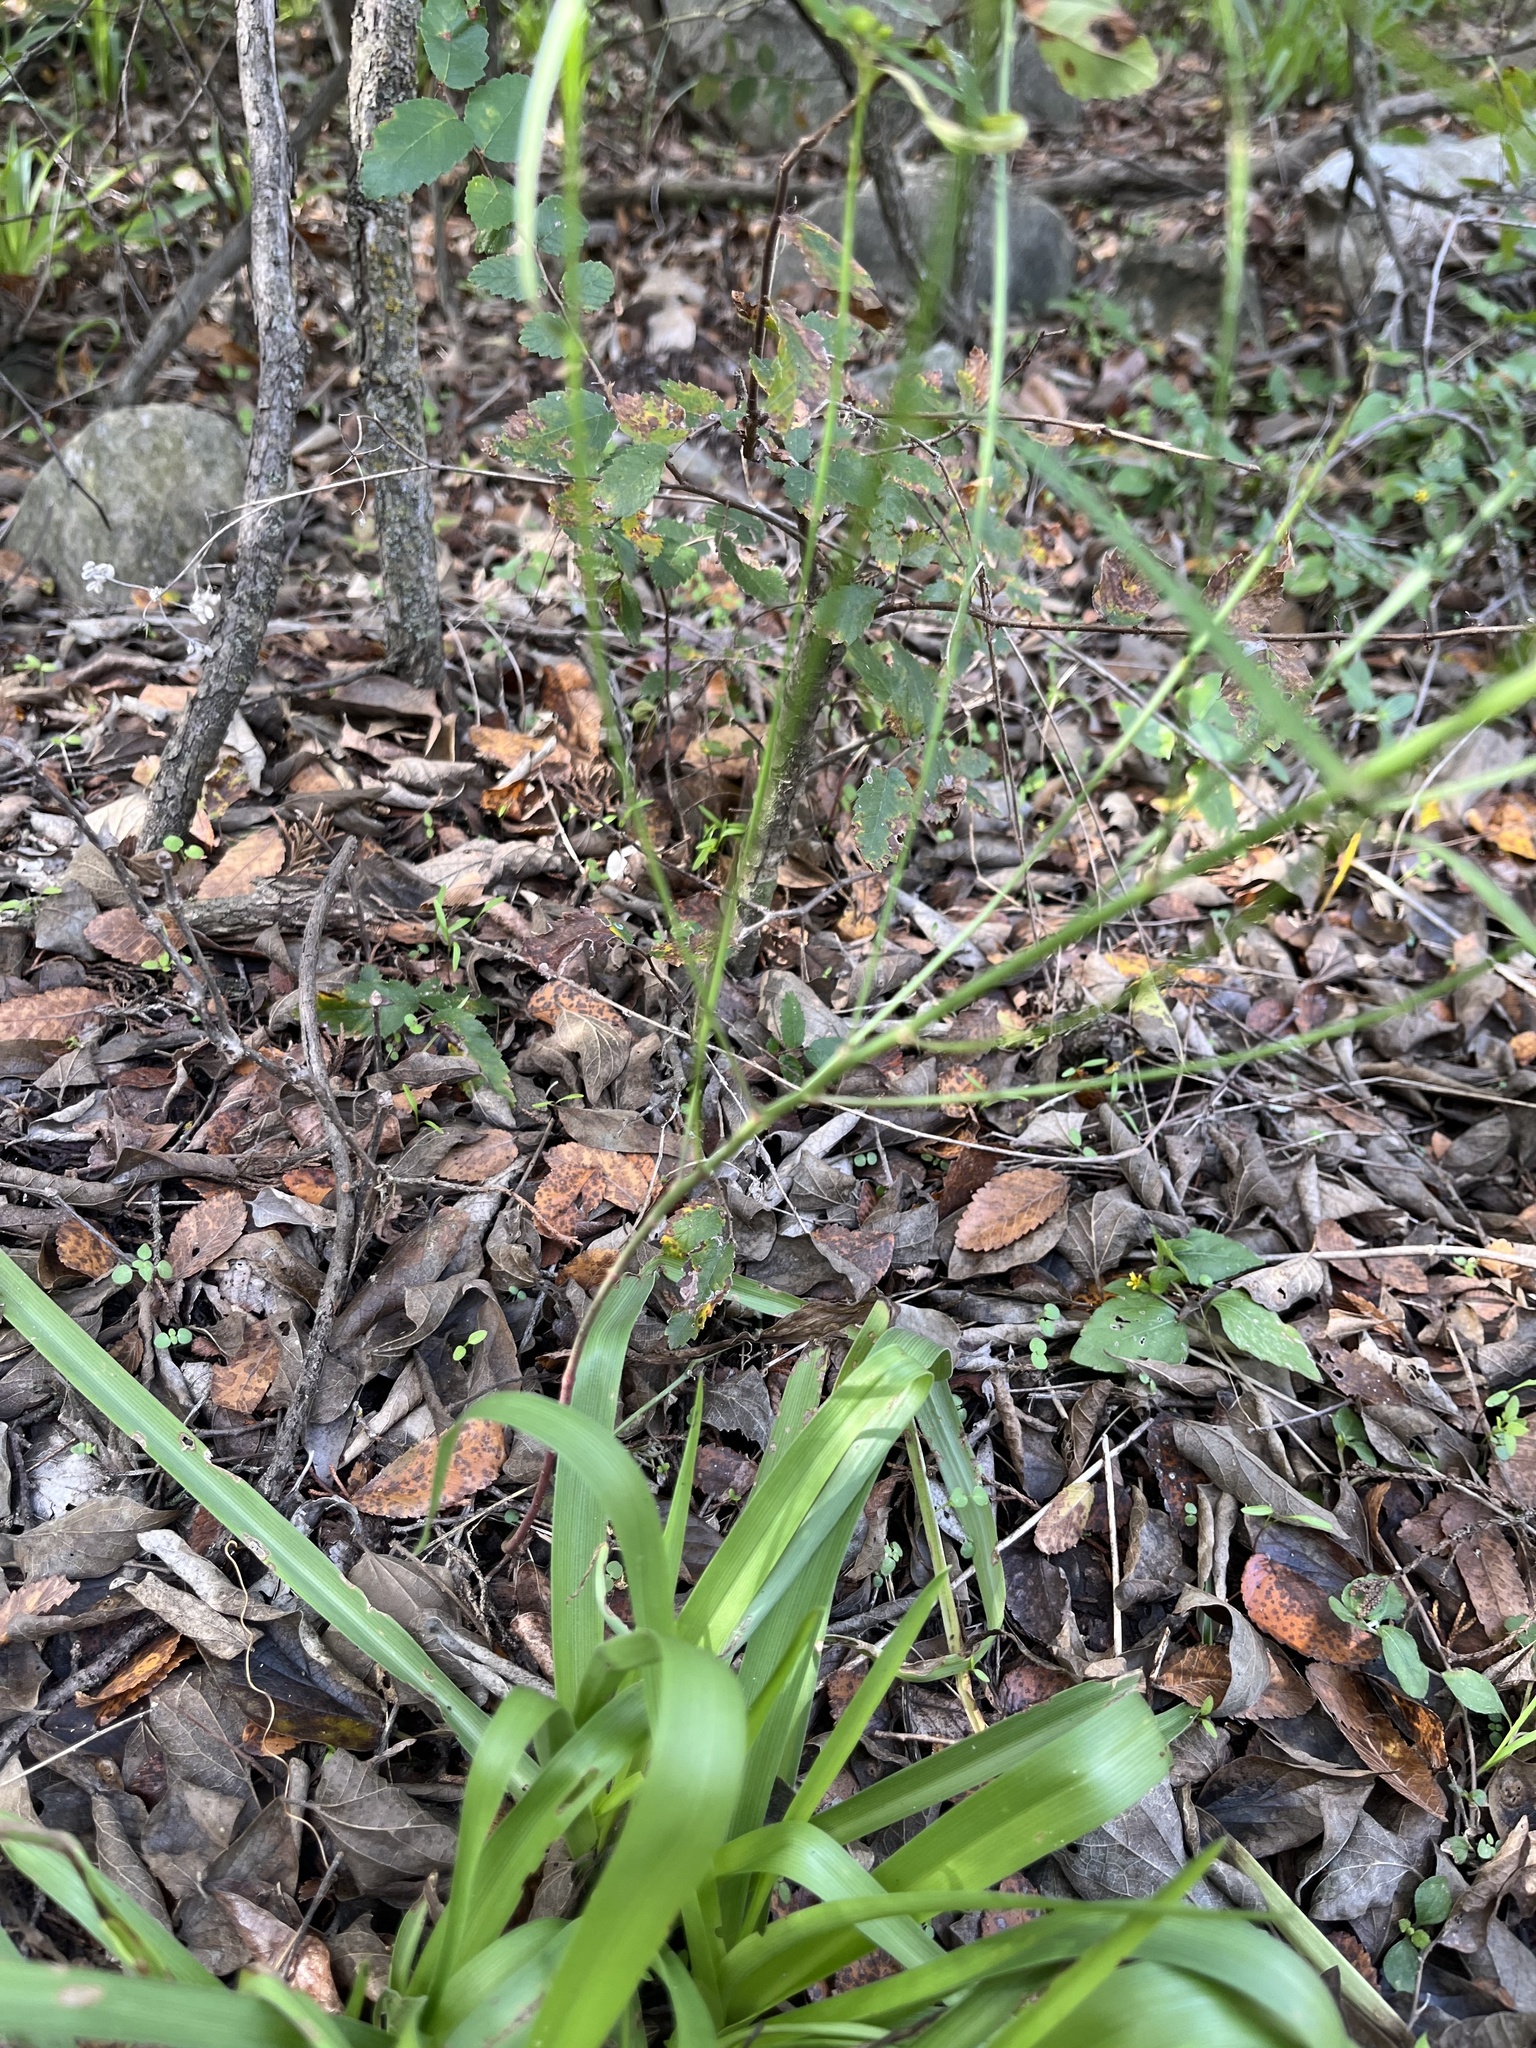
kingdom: Plantae
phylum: Tracheophyta
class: Magnoliopsida
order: Malpighiales
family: Euphorbiaceae
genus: Euphorbia
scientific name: Euphorbia heterophylla
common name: Mexican fireplant
